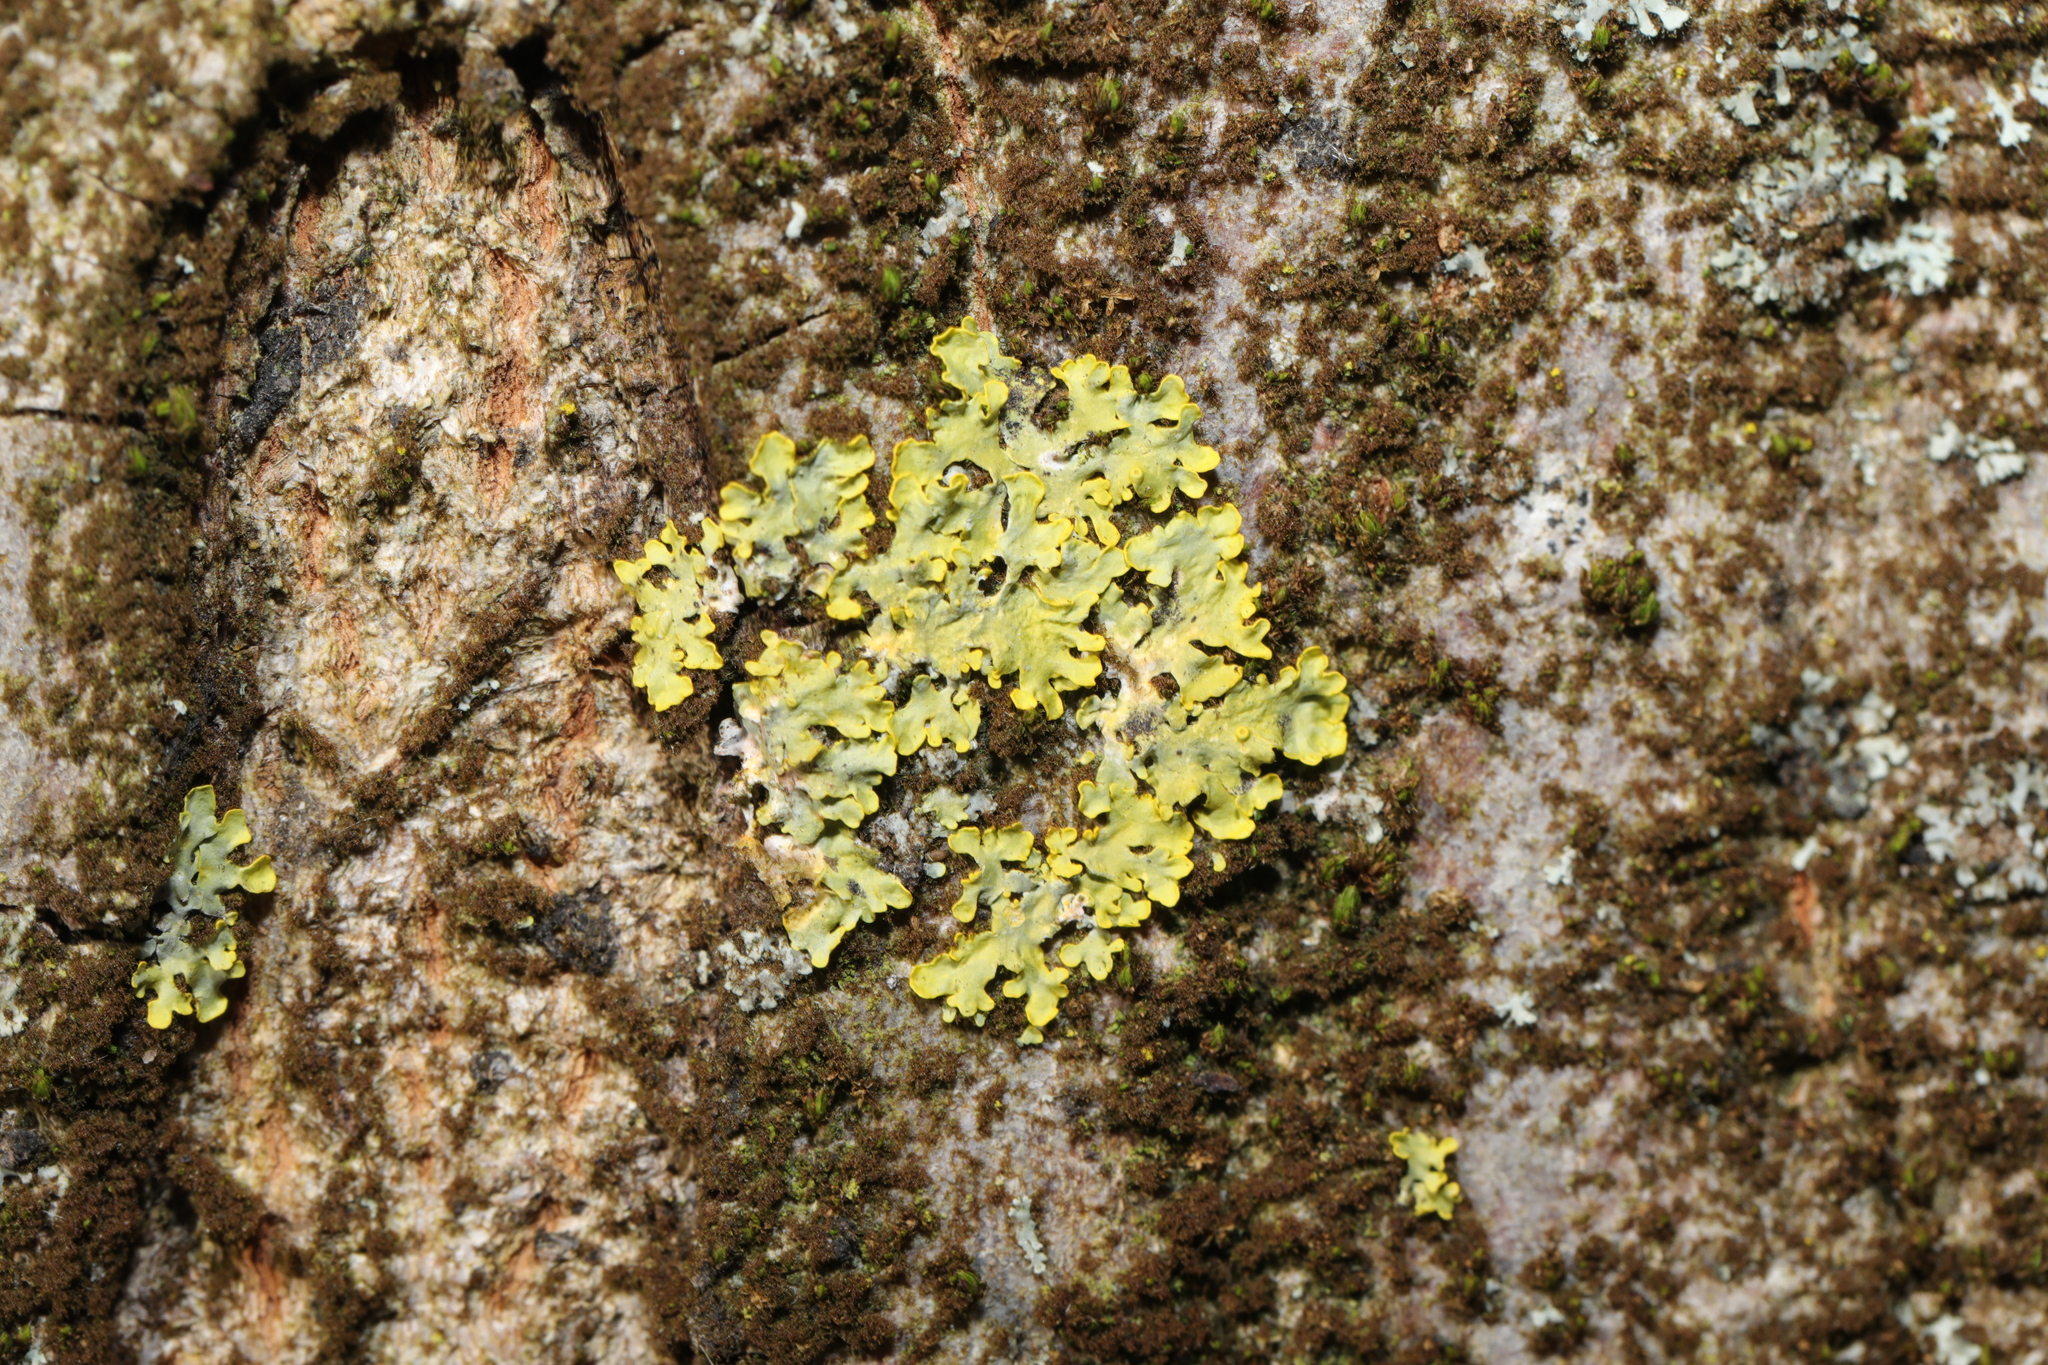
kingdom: Fungi
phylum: Ascomycota
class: Lecanoromycetes
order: Teloschistales
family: Teloschistaceae
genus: Xanthoria
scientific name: Xanthoria parietina
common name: Common orange lichen
